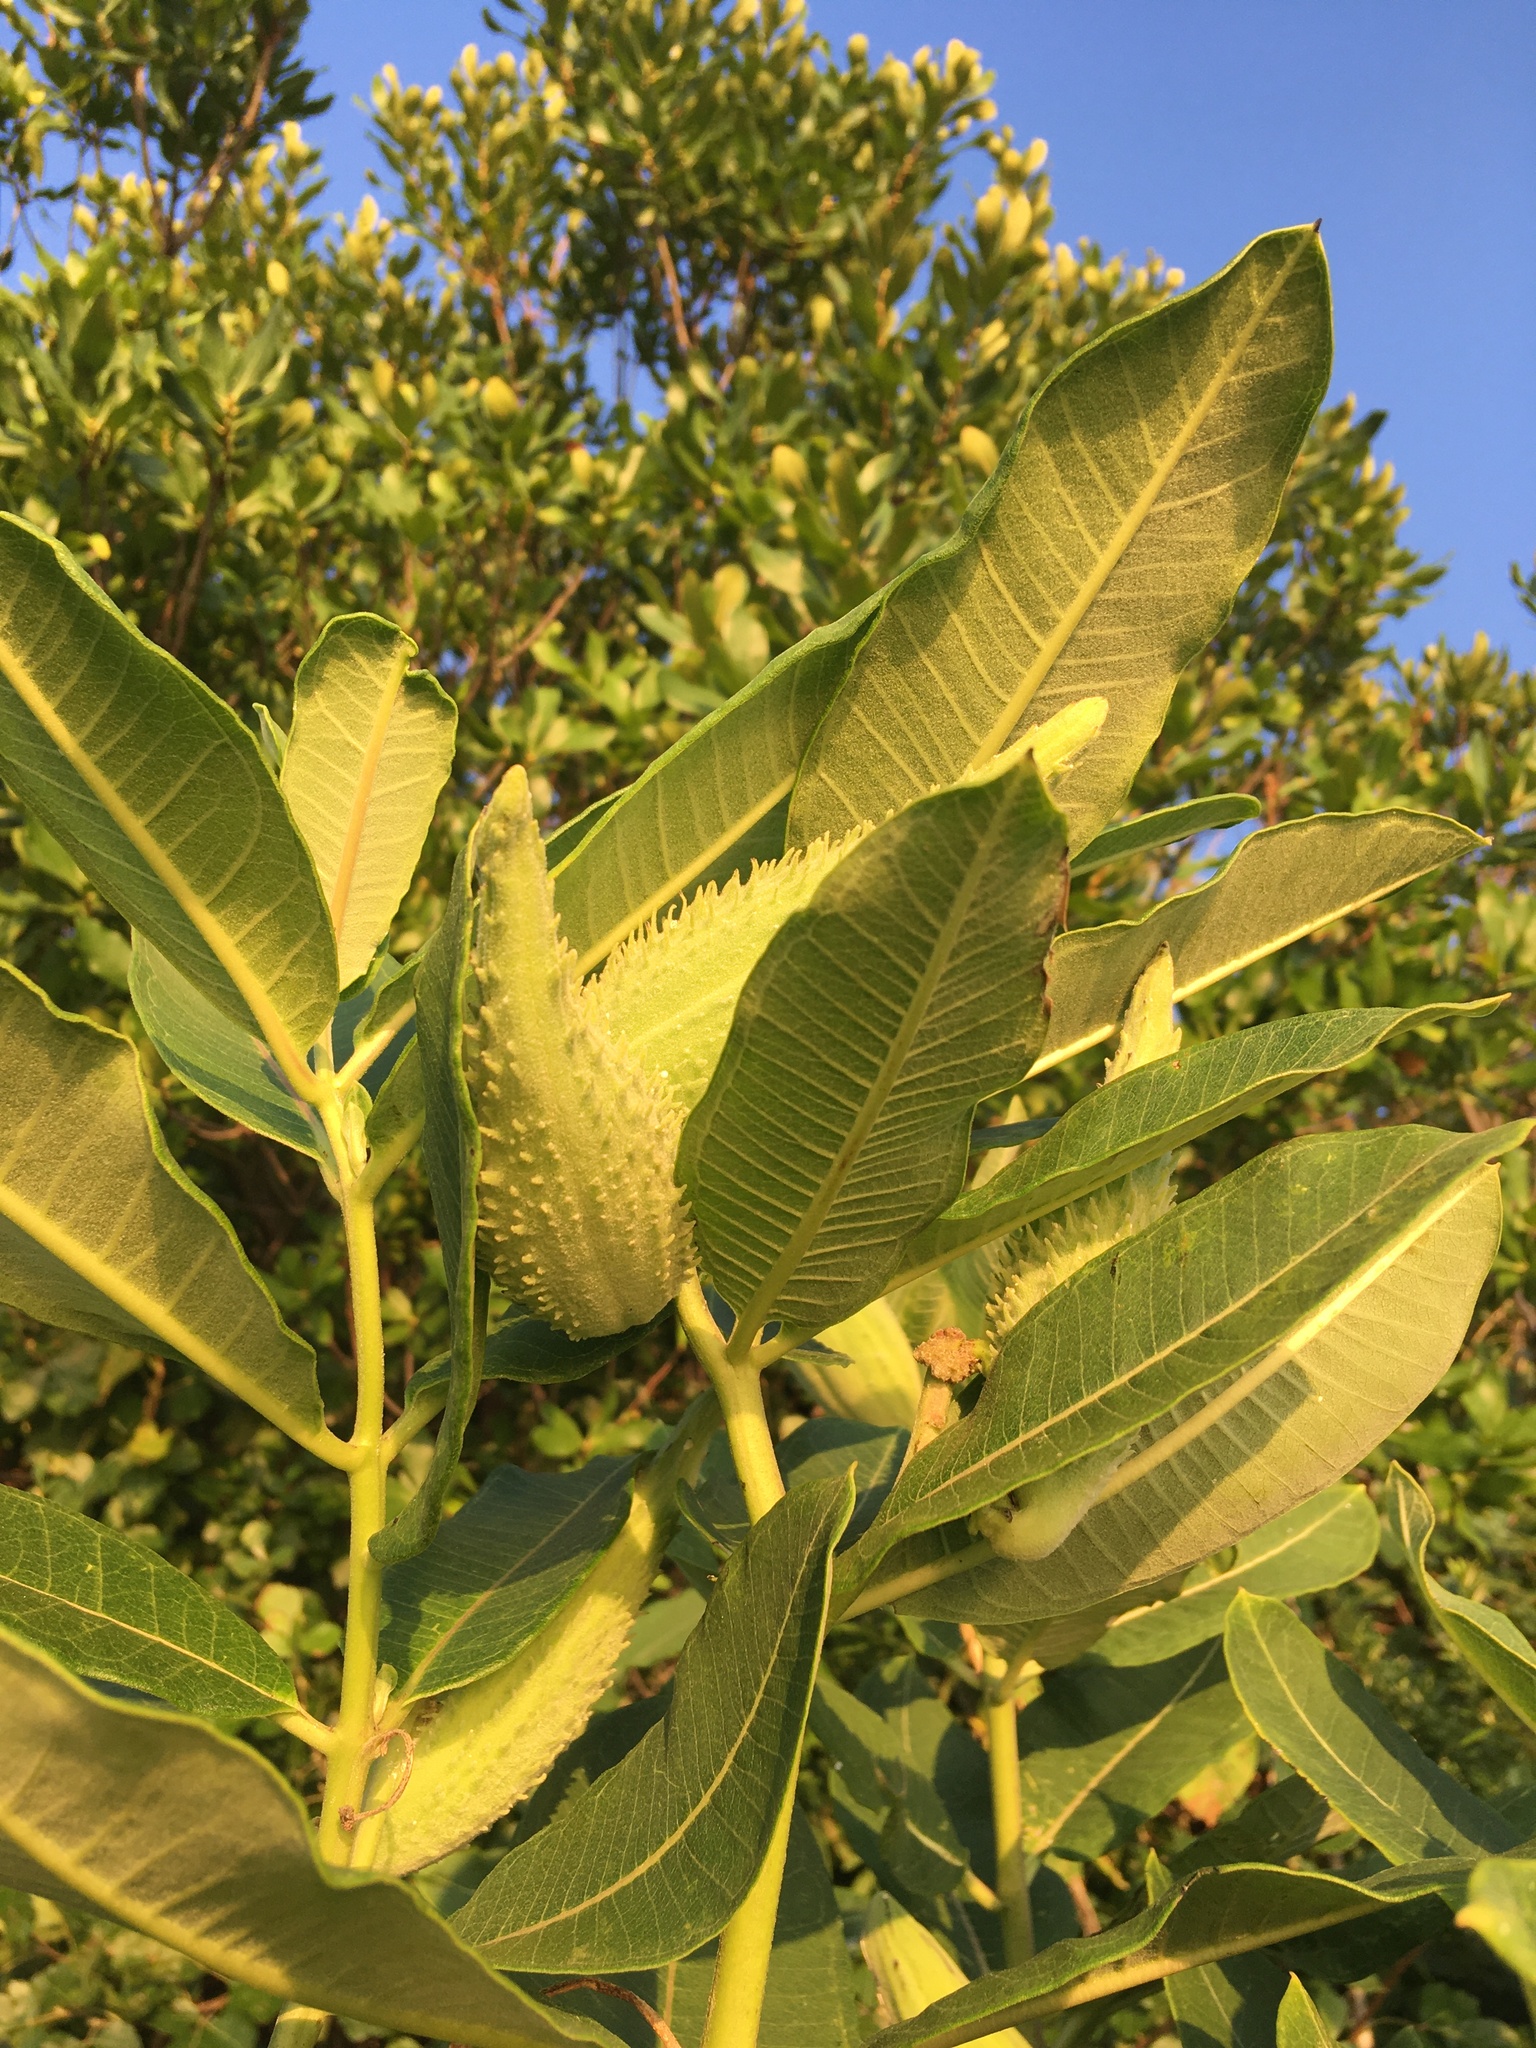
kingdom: Plantae
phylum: Tracheophyta
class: Magnoliopsida
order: Gentianales
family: Apocynaceae
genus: Asclepias
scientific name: Asclepias syriaca
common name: Common milkweed
